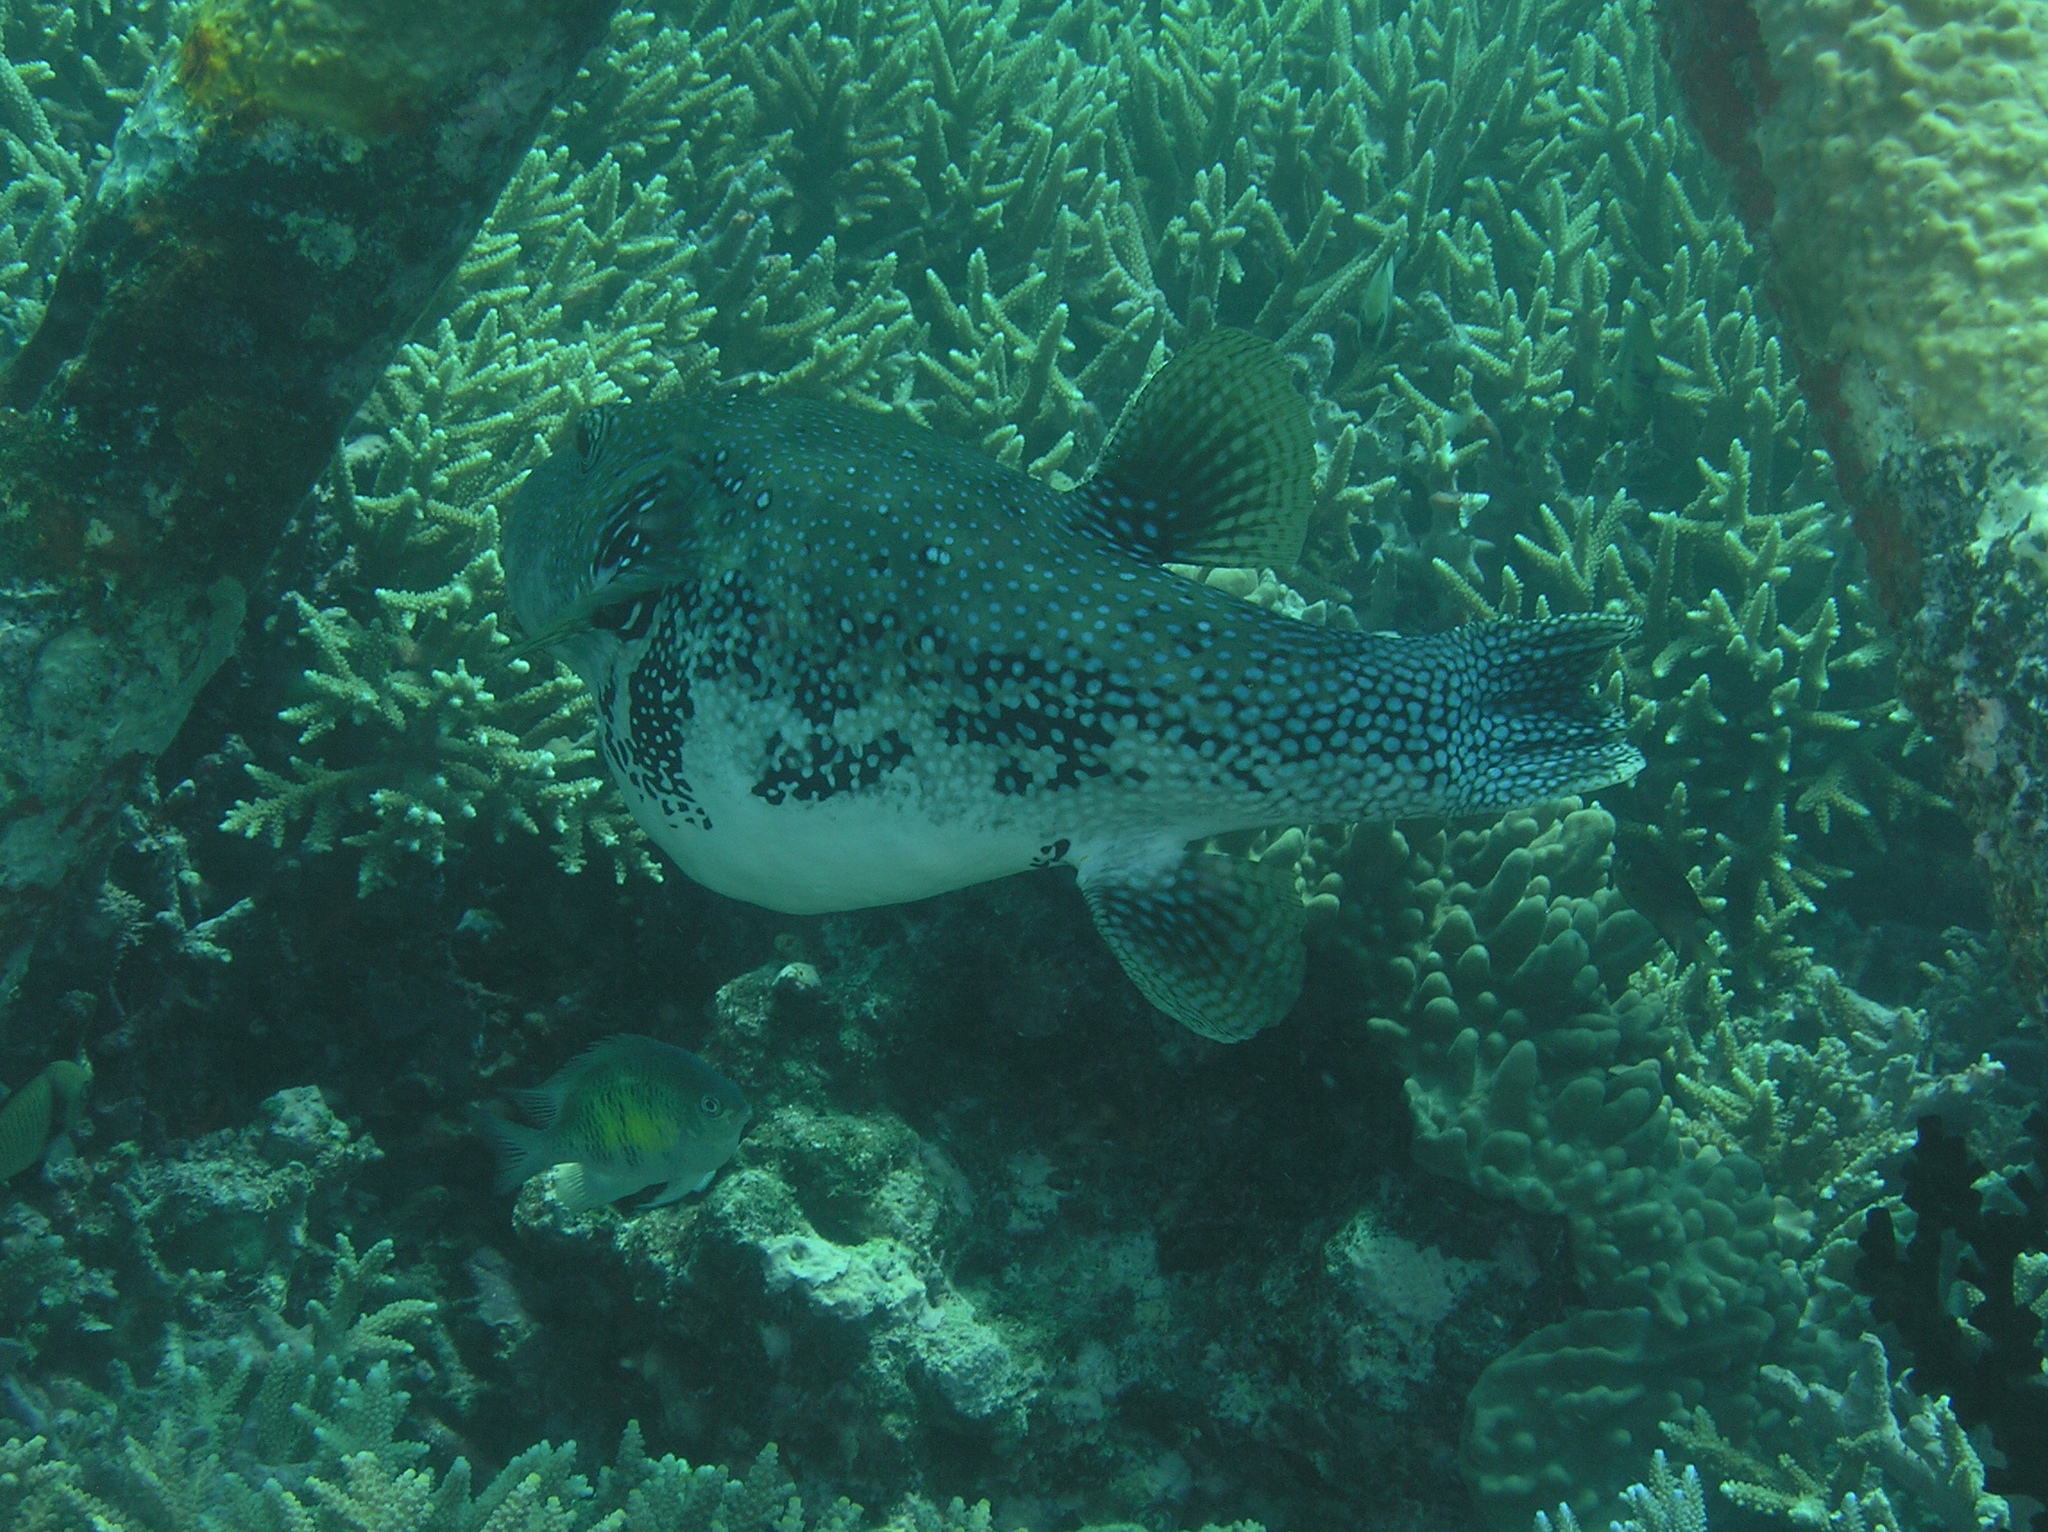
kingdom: Animalia
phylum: Chordata
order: Tetraodontiformes
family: Tetraodontidae
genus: Arothron
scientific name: Arothron caeruleopunctatus
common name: Blue-spotted puffer
